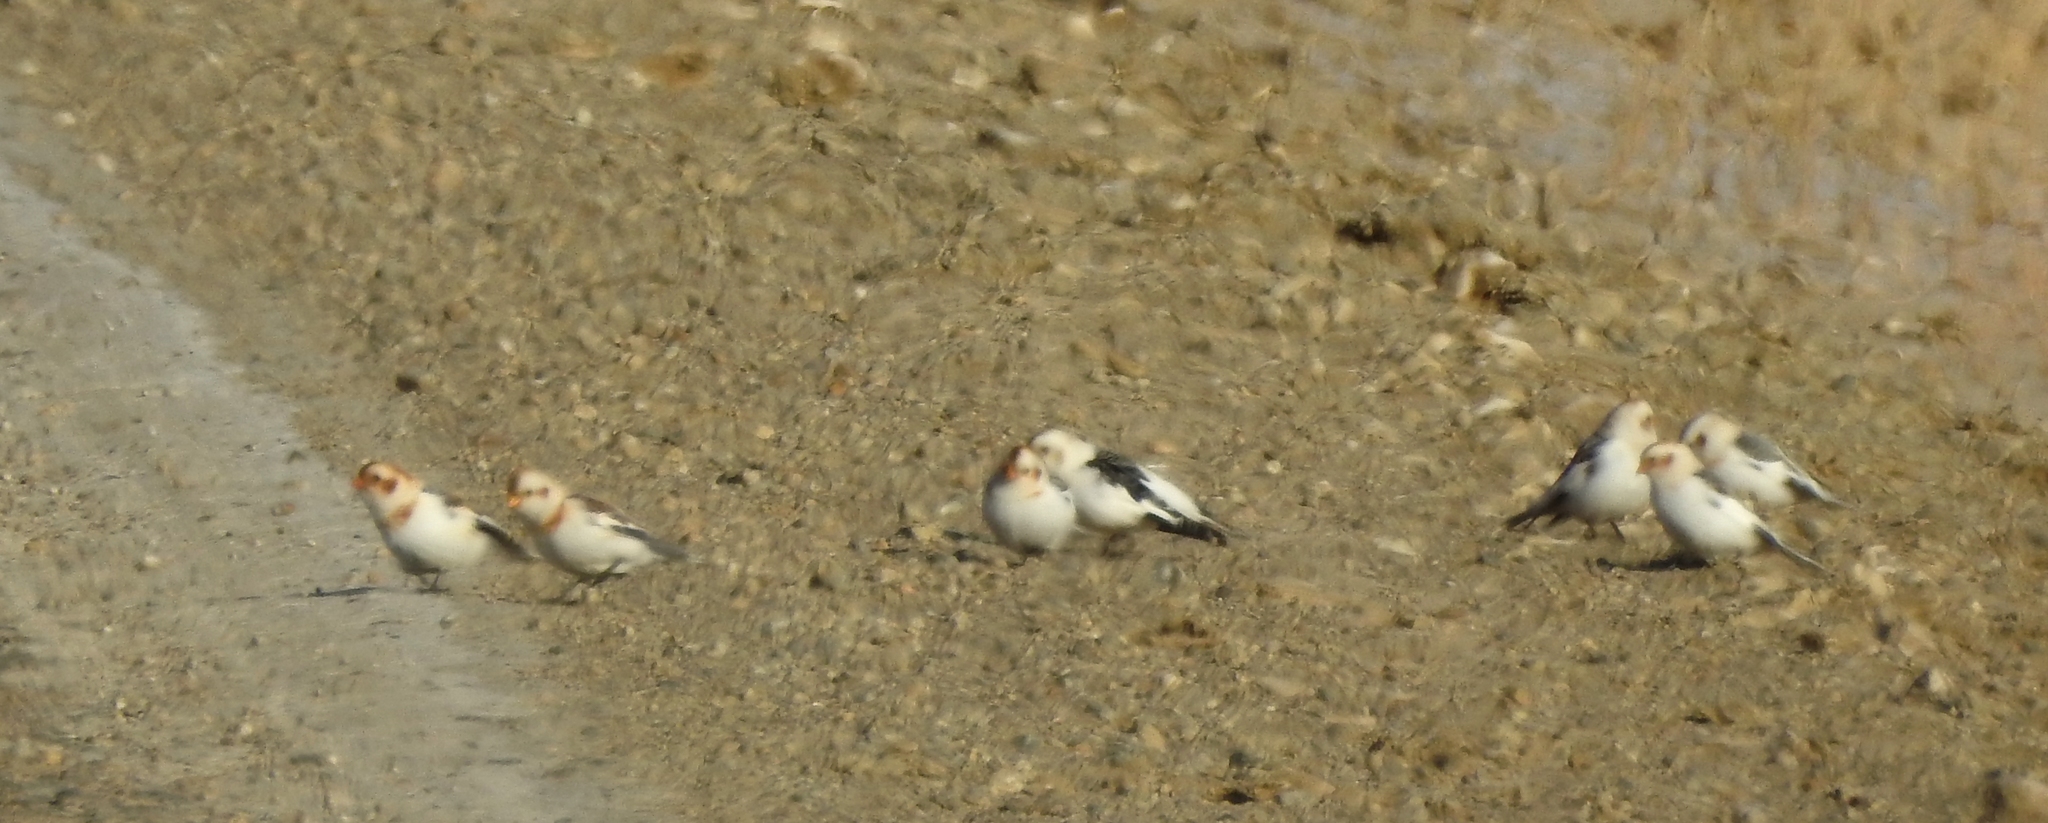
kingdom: Animalia
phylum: Chordata
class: Aves
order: Passeriformes
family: Calcariidae
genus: Plectrophenax
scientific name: Plectrophenax nivalis
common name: Snow bunting
